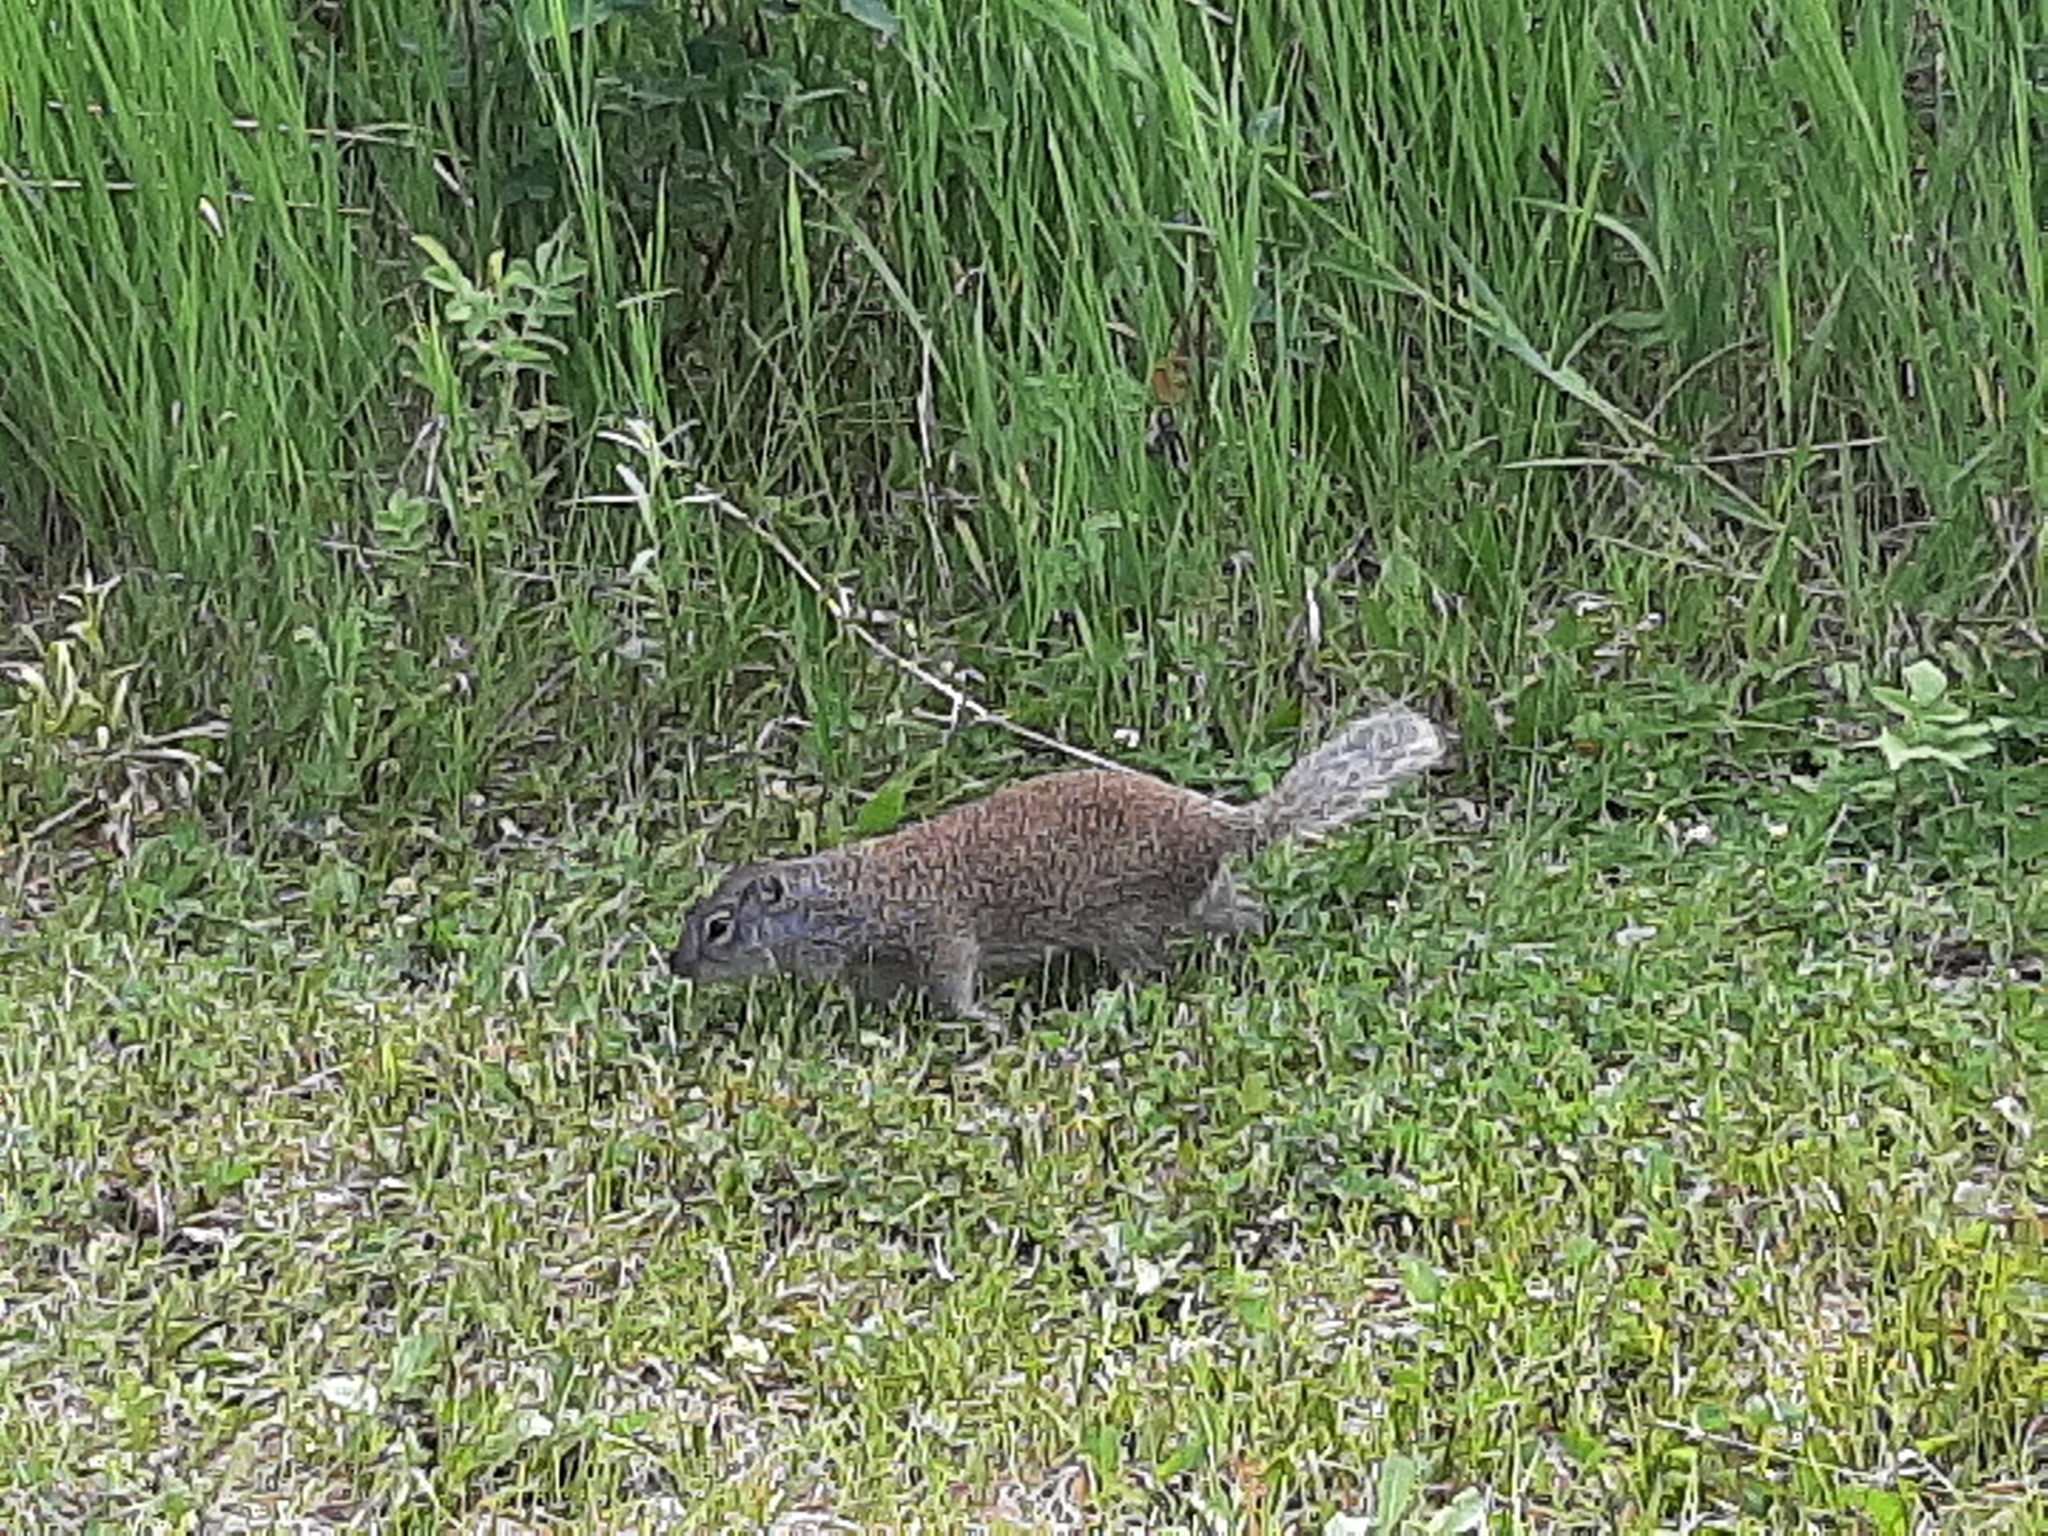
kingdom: Animalia
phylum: Chordata
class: Mammalia
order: Rodentia
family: Sciuridae
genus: Poliocitellus
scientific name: Poliocitellus franklinii
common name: Franklin's ground squirrel
